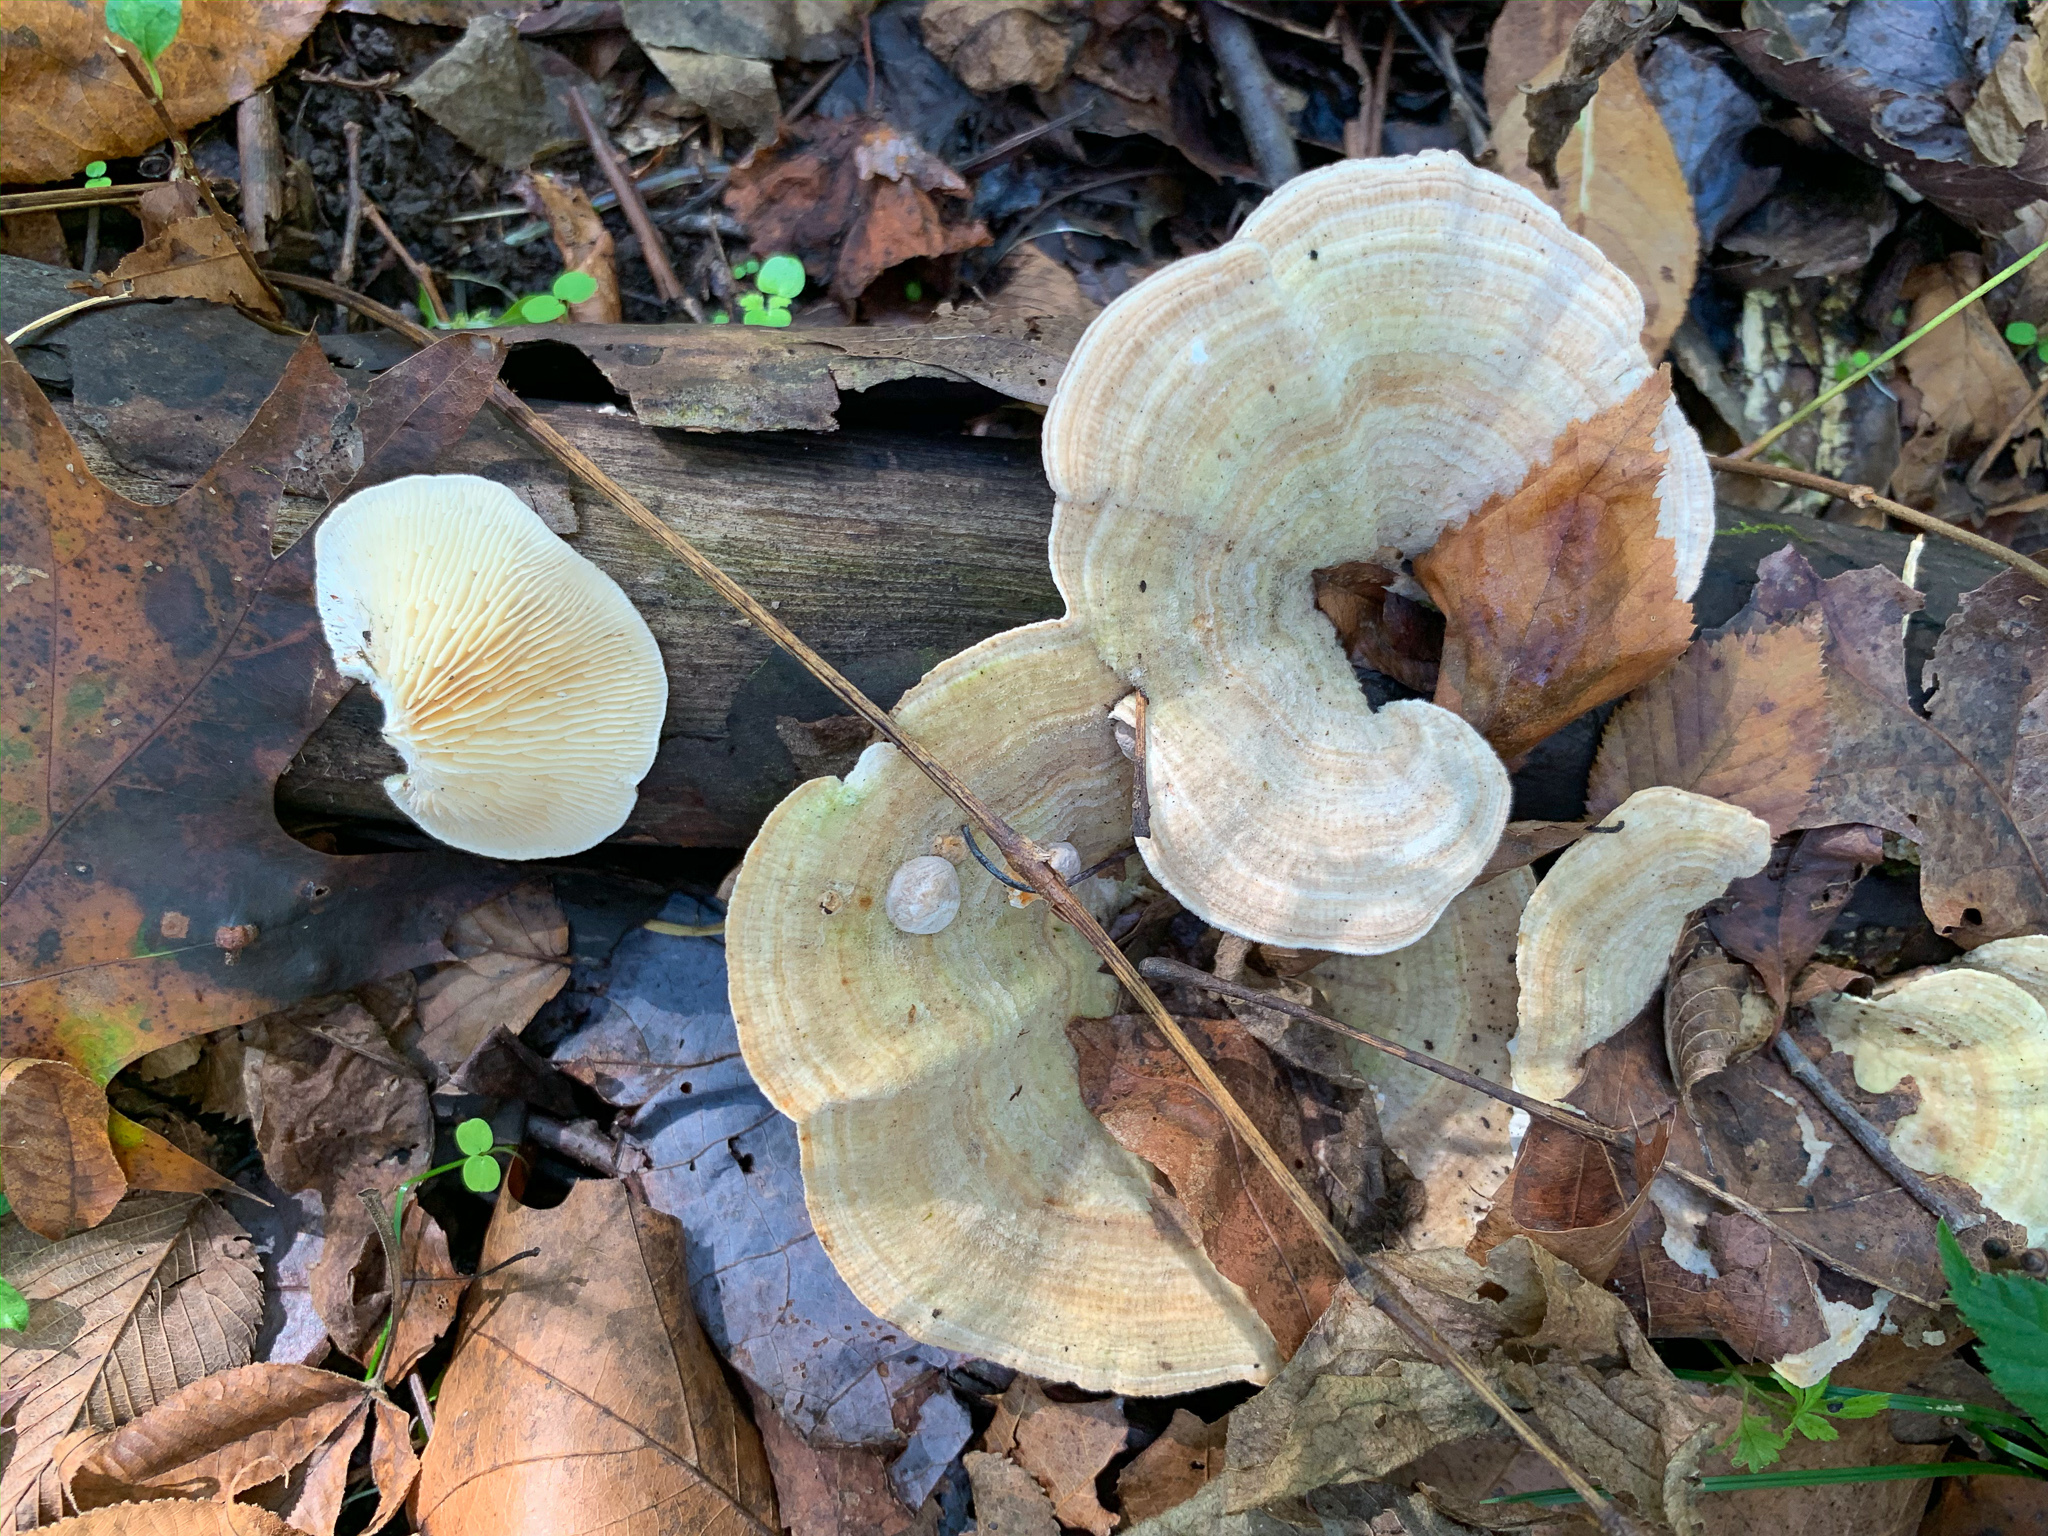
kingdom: Fungi
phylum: Basidiomycota
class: Agaricomycetes
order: Polyporales
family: Polyporaceae
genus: Lenzites
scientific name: Lenzites betulinus
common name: Birch mazegill
